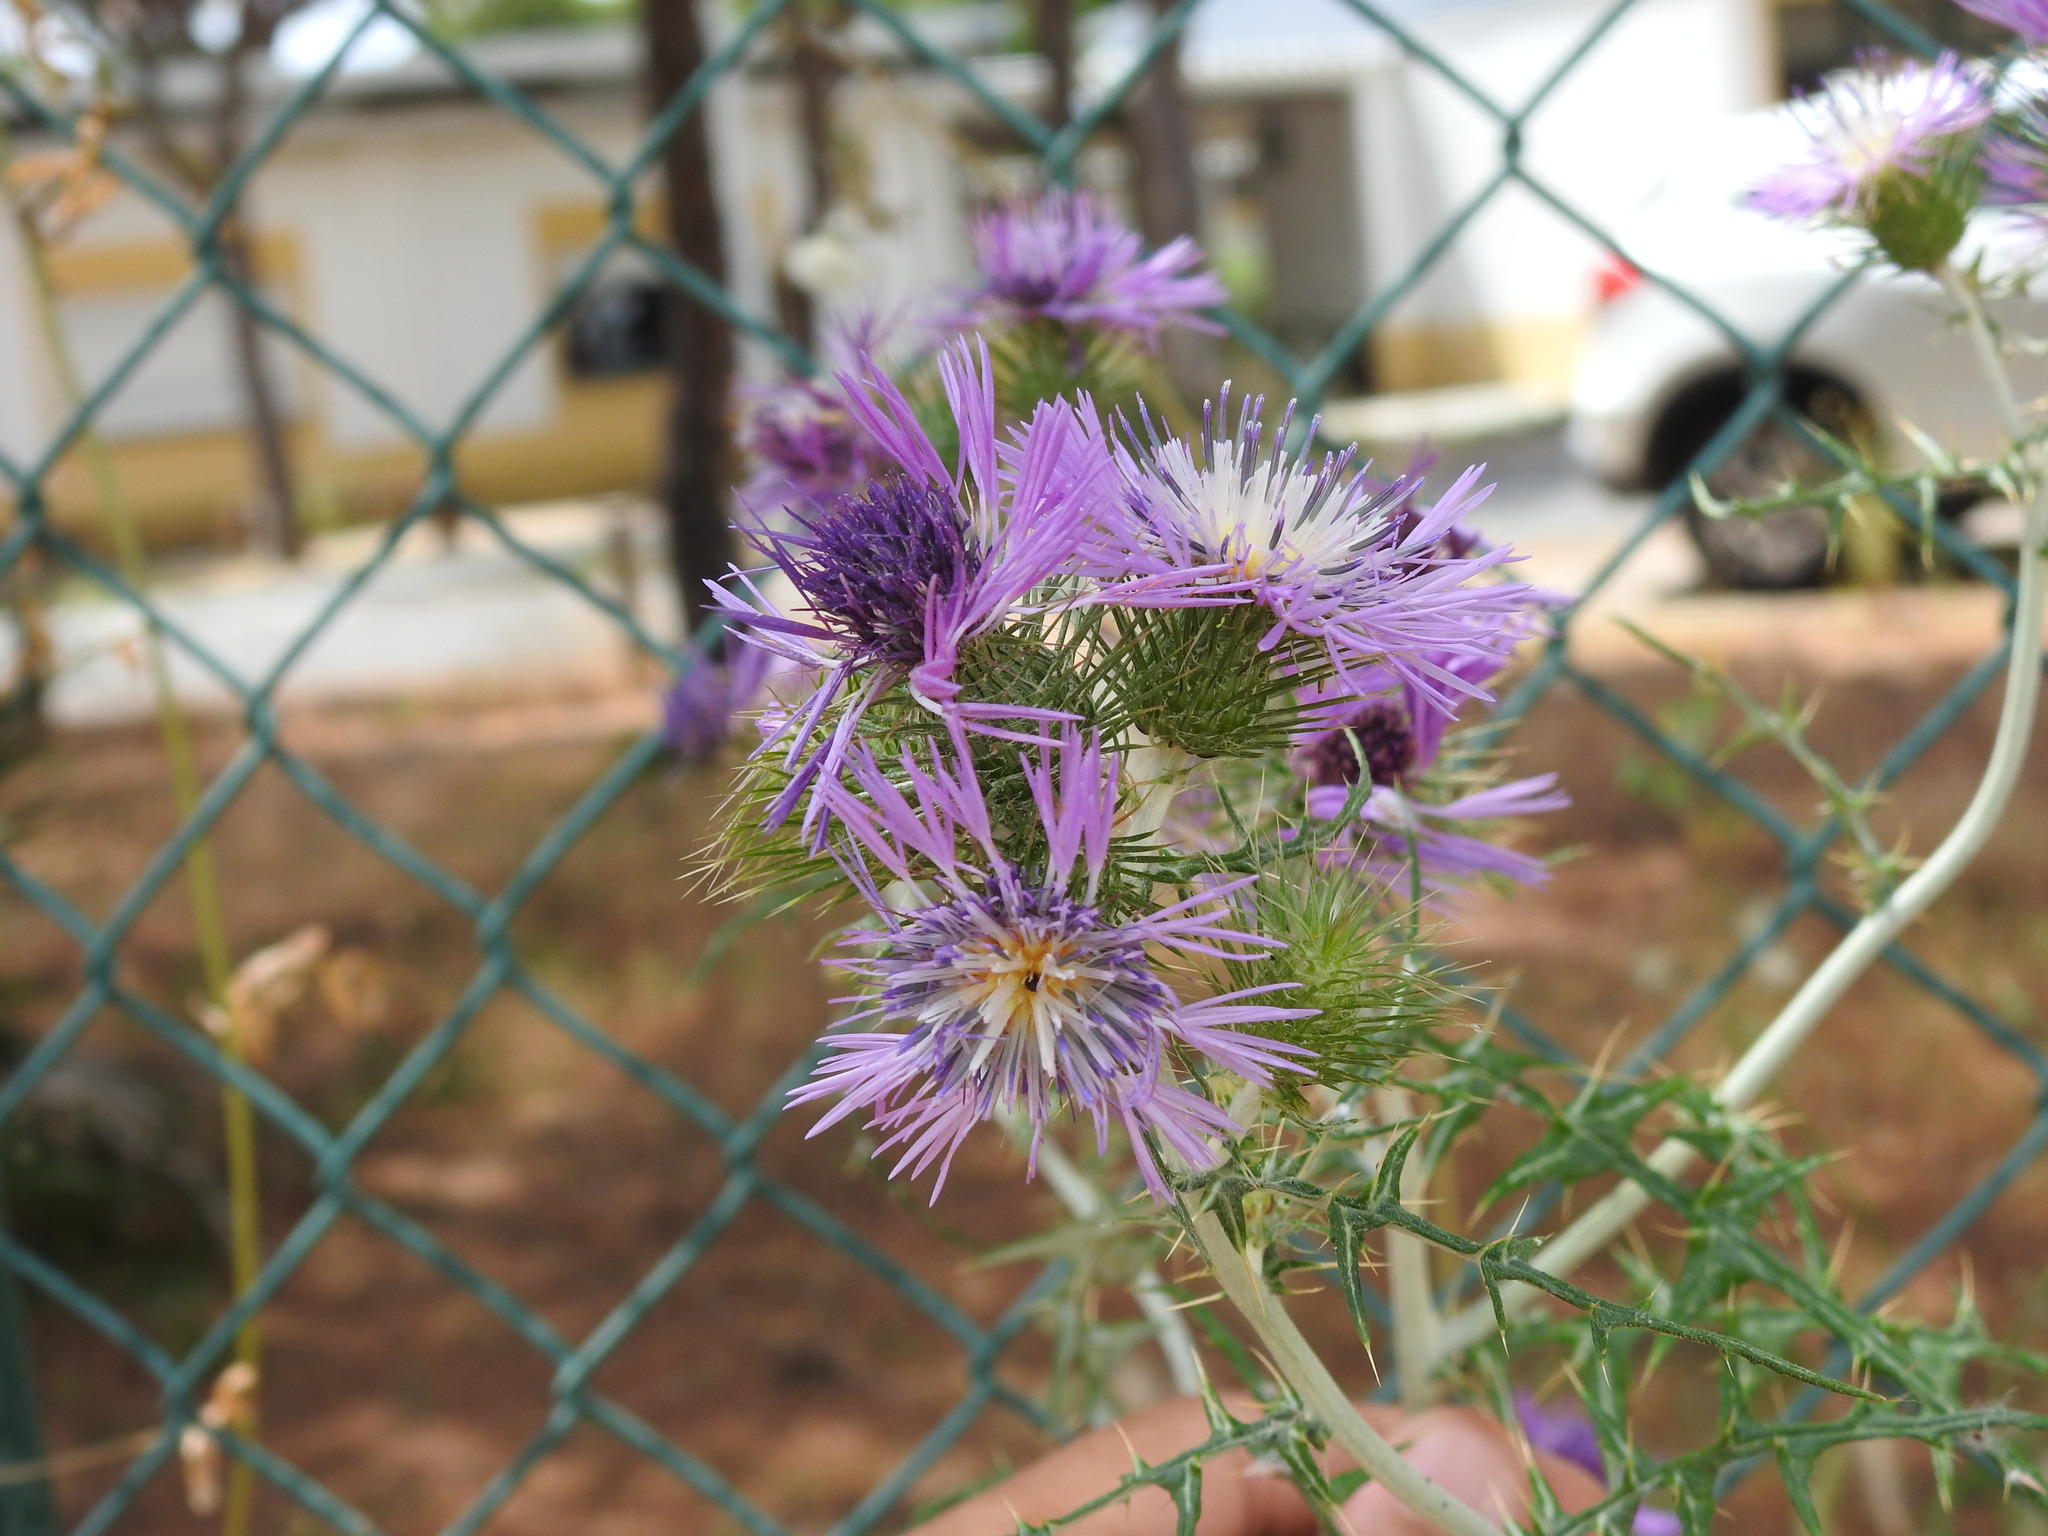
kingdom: Plantae
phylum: Tracheophyta
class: Magnoliopsida
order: Asterales
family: Asteraceae
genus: Galactites
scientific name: Galactites tomentosa
